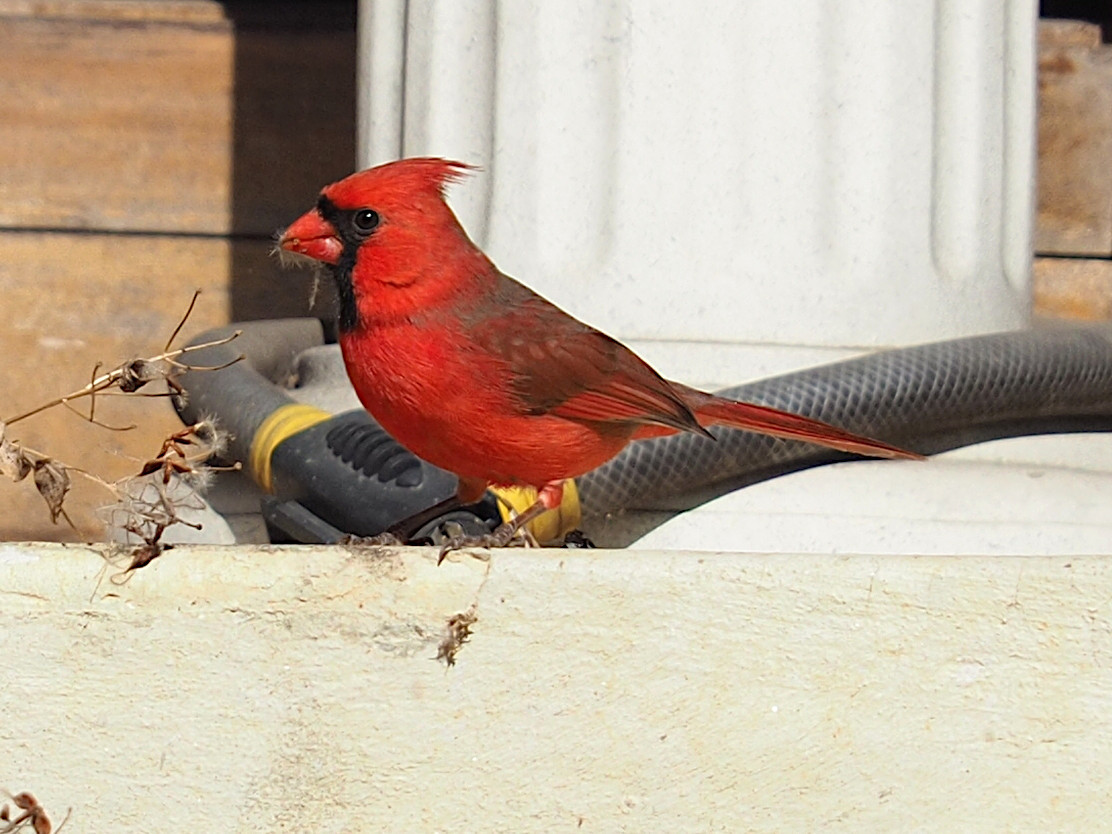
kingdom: Animalia
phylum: Chordata
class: Aves
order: Passeriformes
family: Cardinalidae
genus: Cardinalis
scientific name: Cardinalis cardinalis
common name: Northern cardinal
